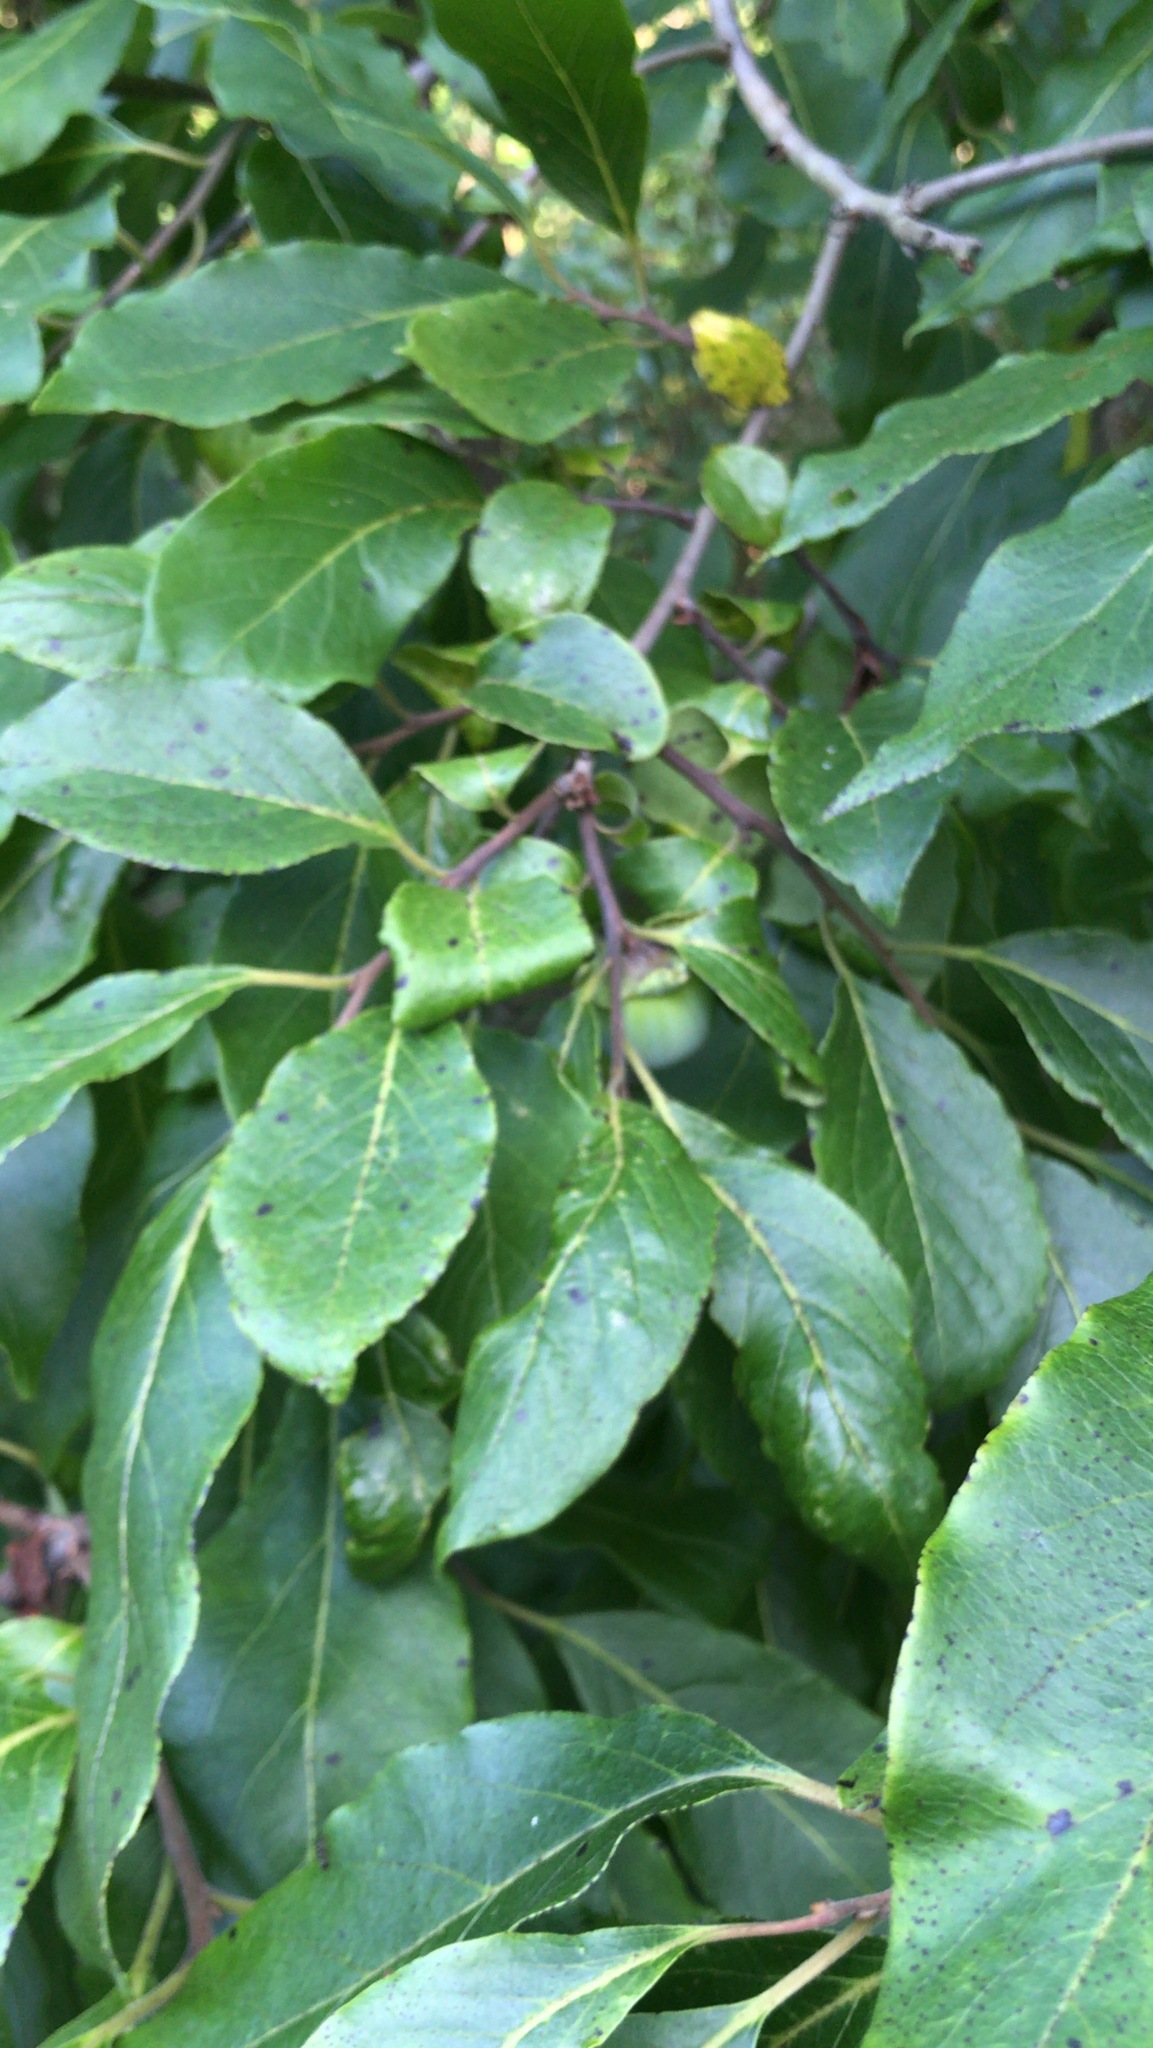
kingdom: Plantae
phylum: Tracheophyta
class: Magnoliopsida
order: Ericales
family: Ebenaceae
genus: Diospyros
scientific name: Diospyros virginiana
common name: Persimmon
